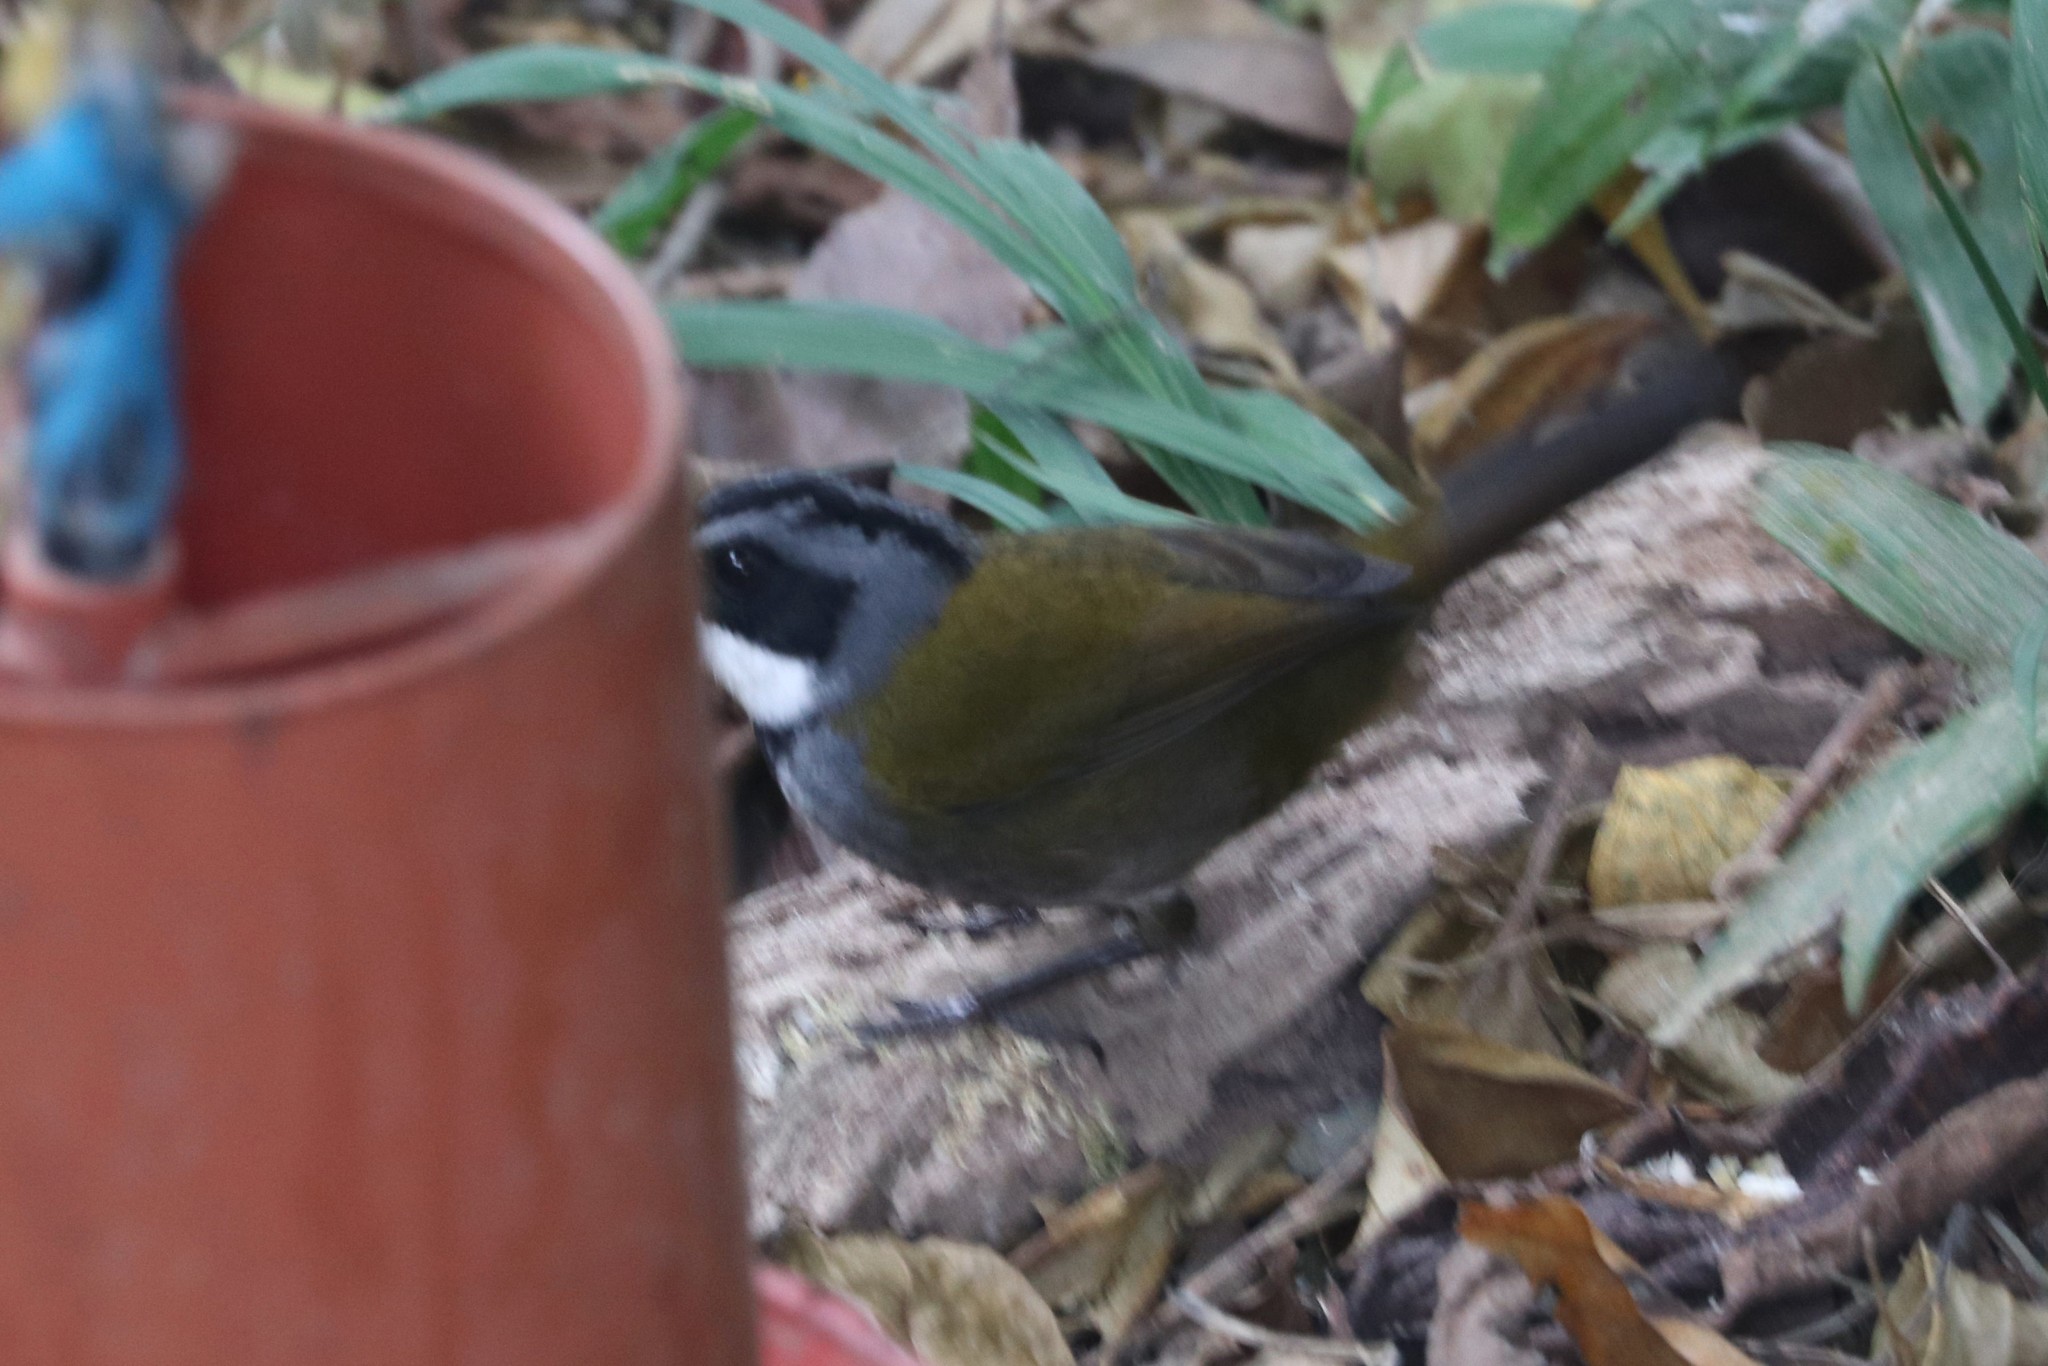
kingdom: Animalia
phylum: Chordata
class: Aves
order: Passeriformes
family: Passerellidae
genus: Arremon
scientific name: Arremon basilicus
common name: Sierra nevada brushfinch
